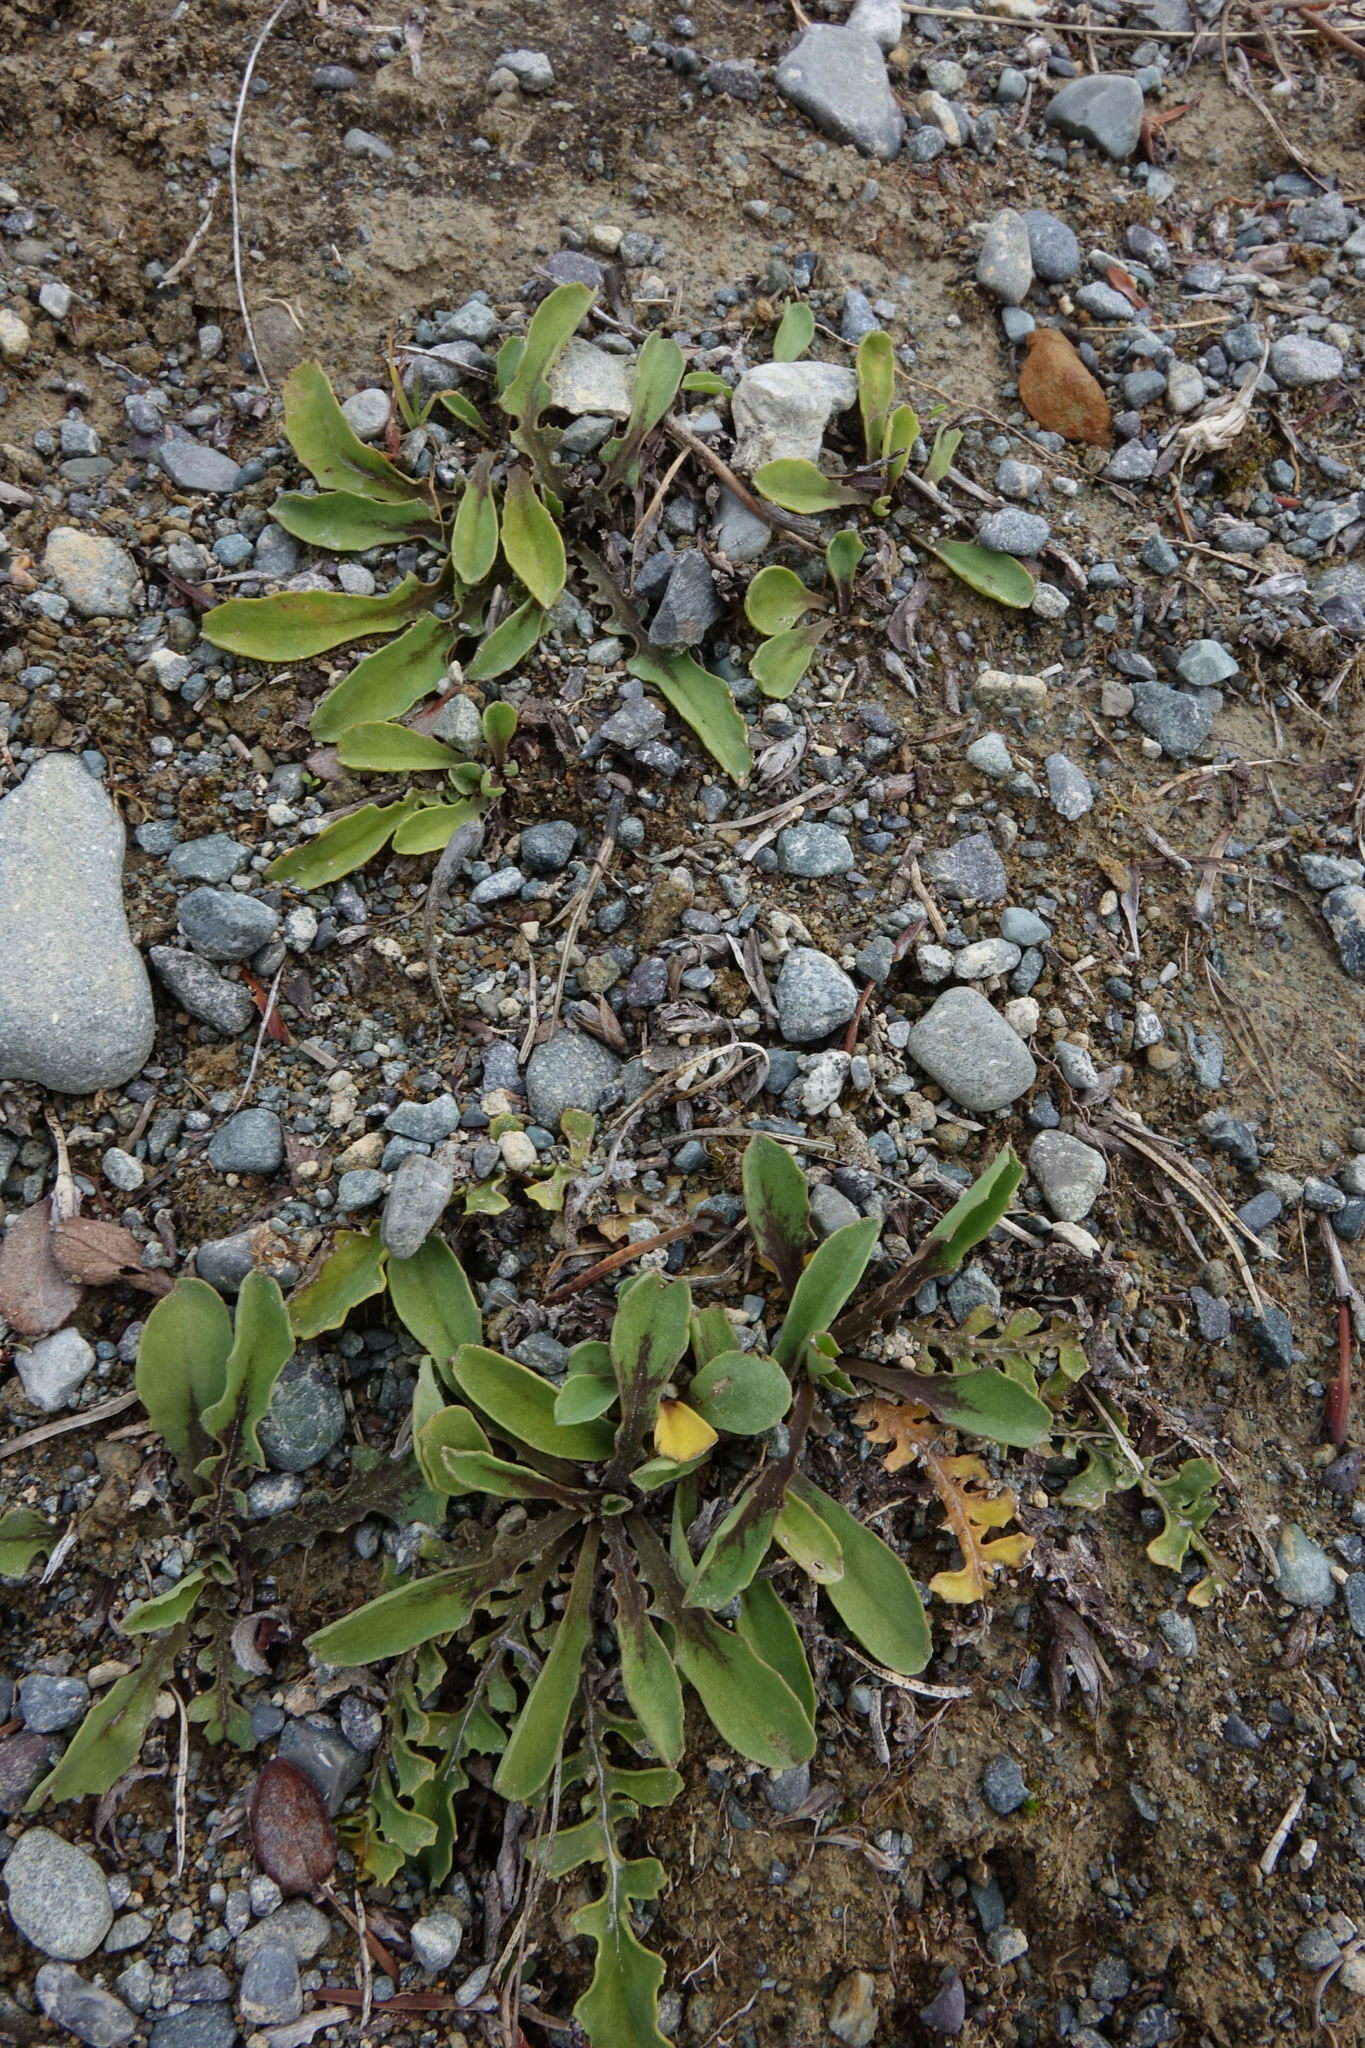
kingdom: Plantae
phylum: Tracheophyta
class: Magnoliopsida
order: Asterales
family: Asteraceae
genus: Sonchus
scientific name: Sonchus novae-zelandiae
